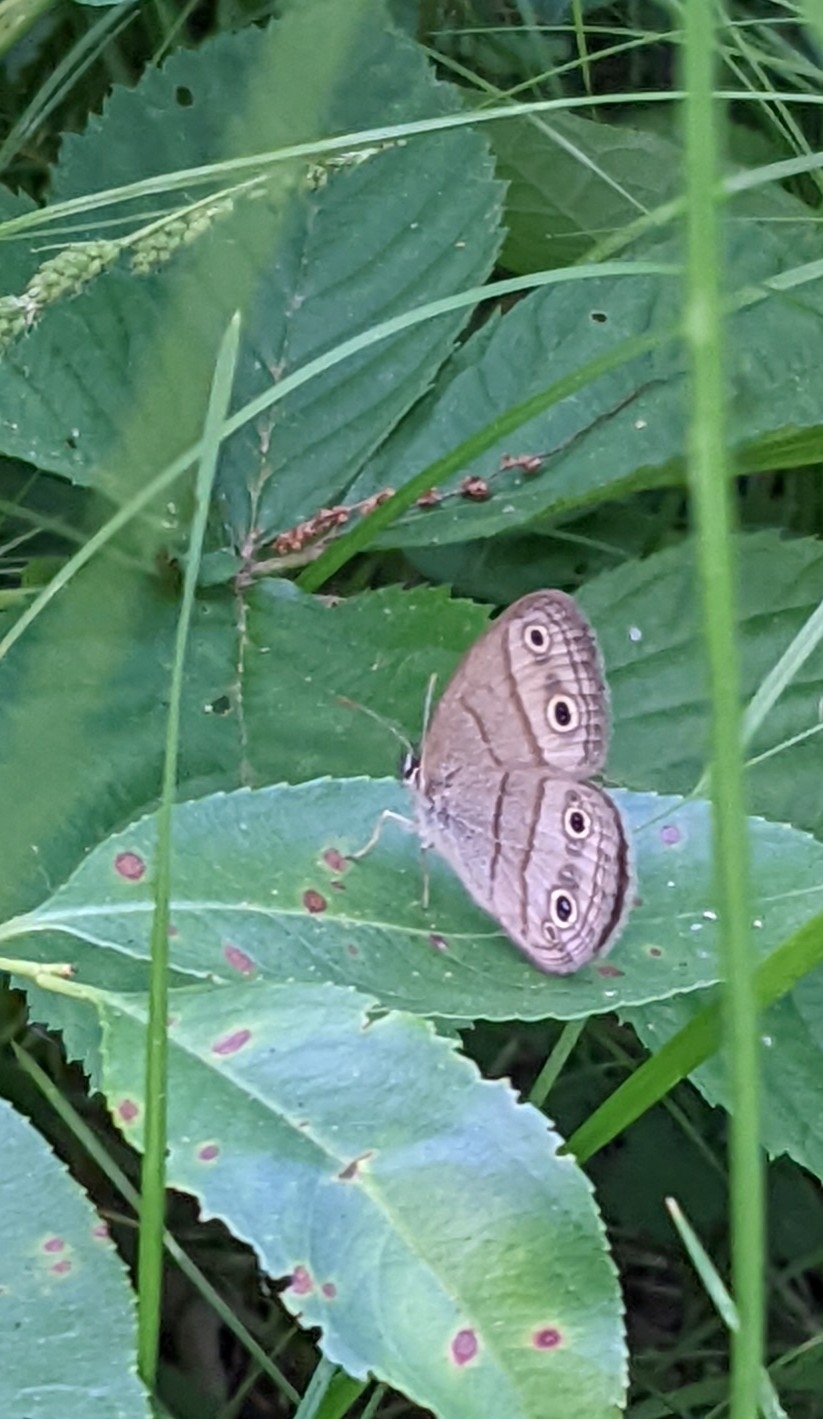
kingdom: Animalia
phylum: Arthropoda
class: Insecta
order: Lepidoptera
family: Nymphalidae
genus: Euptychia
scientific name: Euptychia cymela
